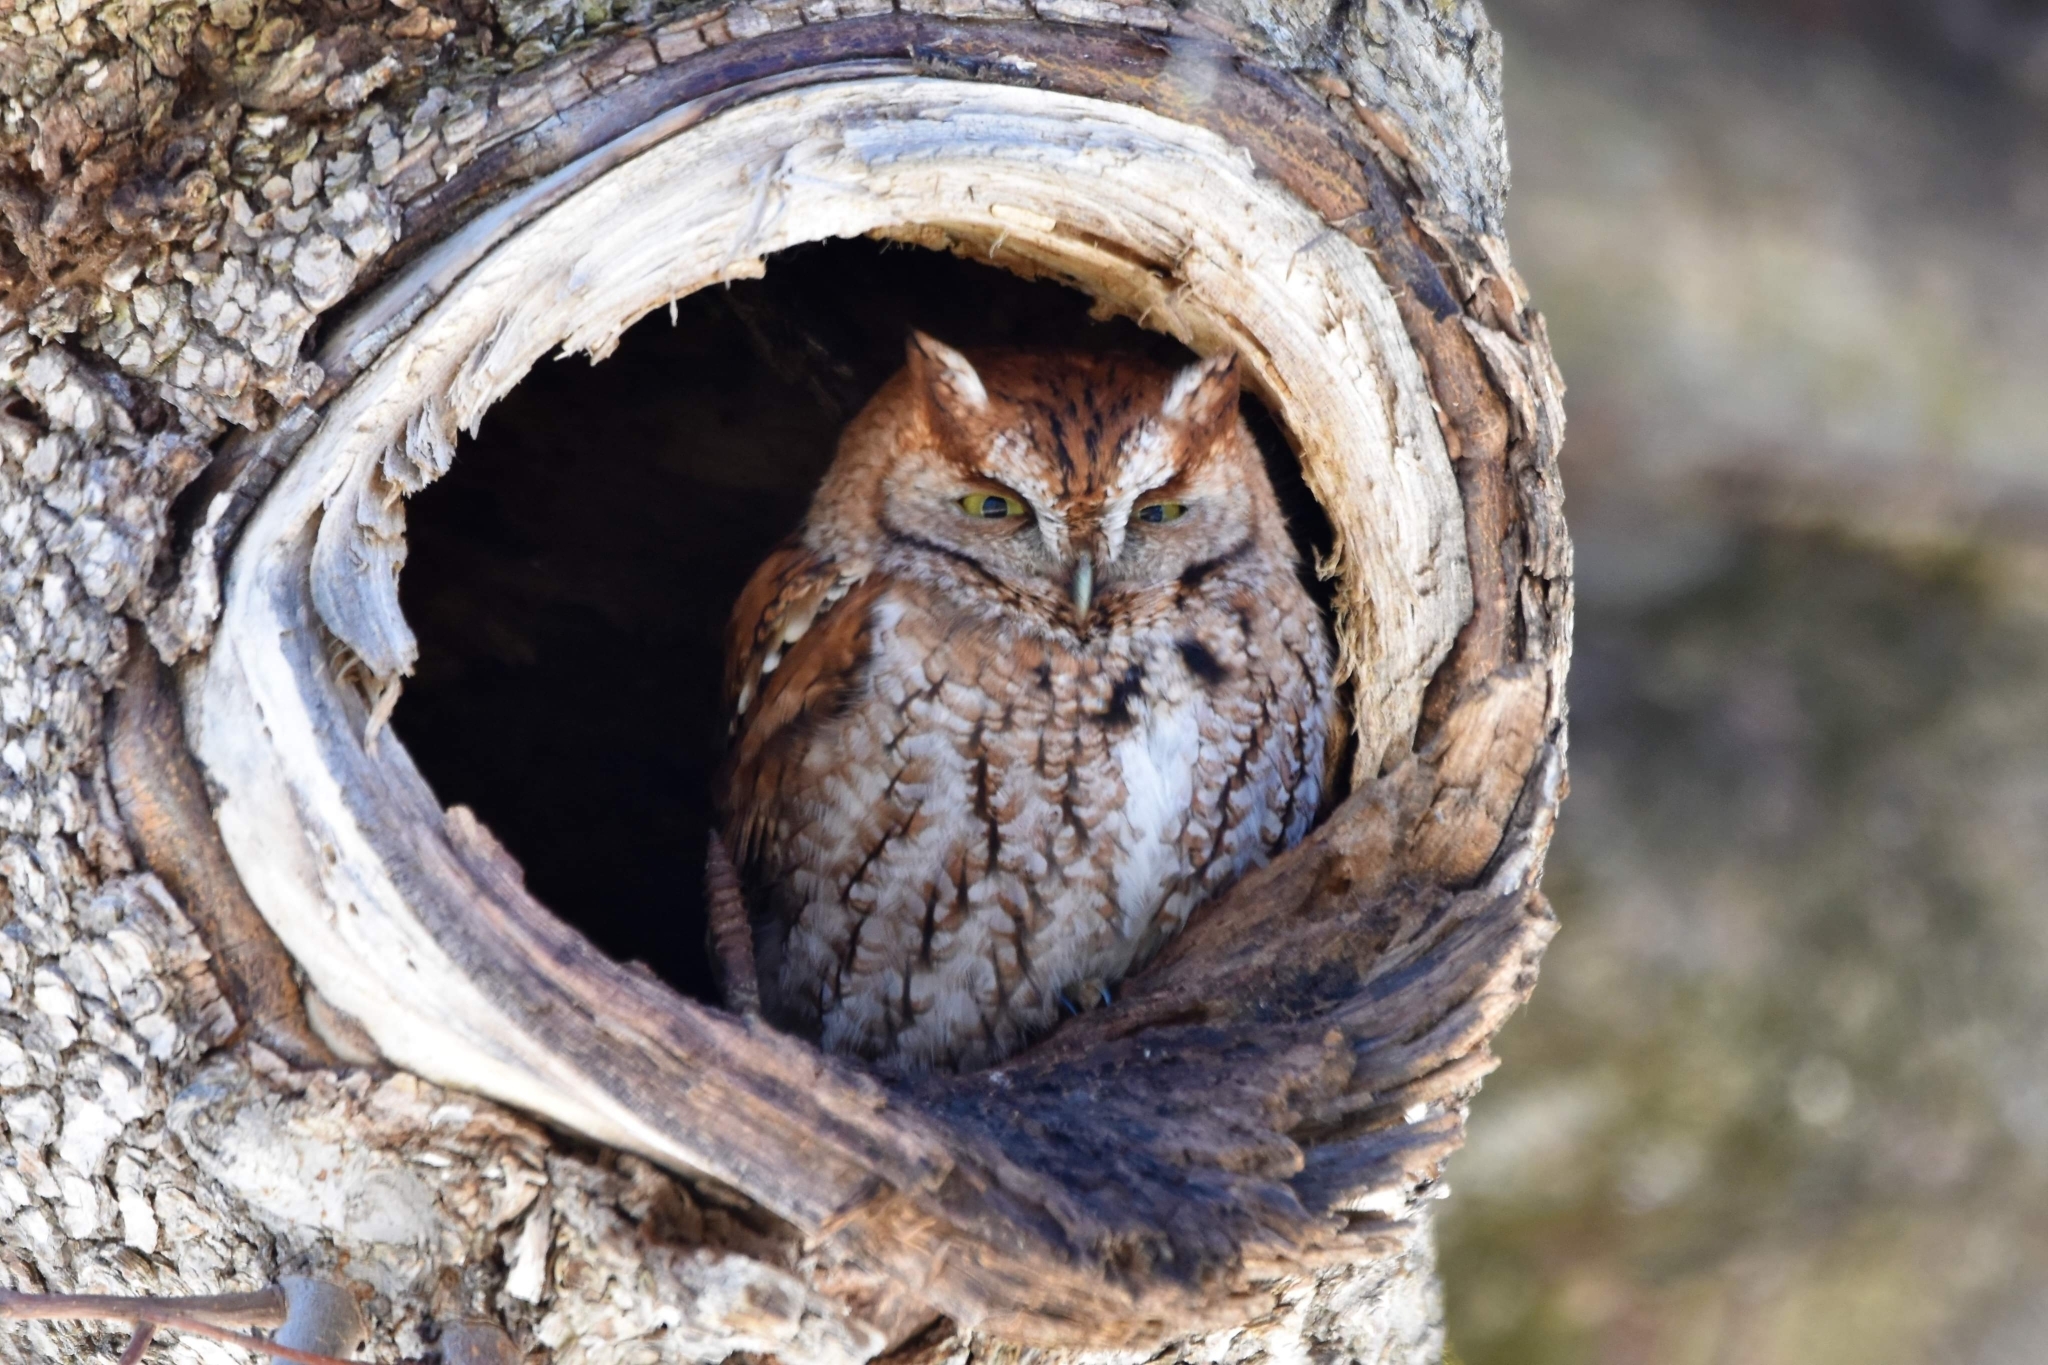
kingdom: Animalia
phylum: Chordata
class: Aves
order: Strigiformes
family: Strigidae
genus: Megascops
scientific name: Megascops asio
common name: Eastern screech-owl
